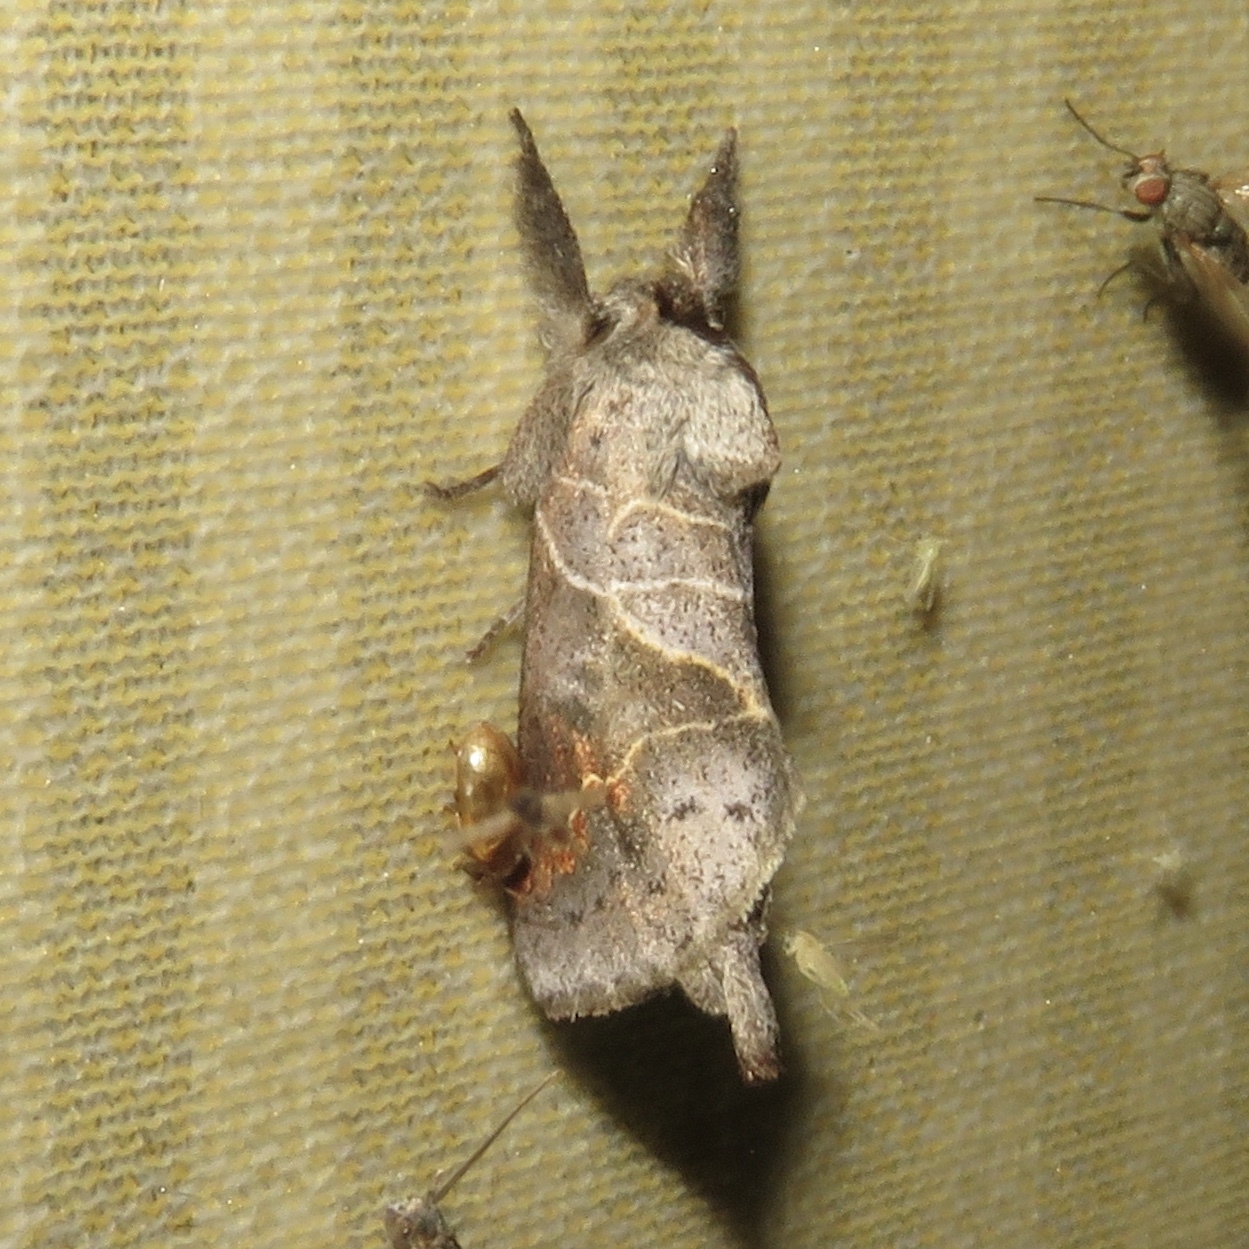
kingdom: Animalia
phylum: Arthropoda
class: Insecta
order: Lepidoptera
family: Notodontidae
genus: Clostera
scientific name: Clostera apicalis
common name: Apical prominent
